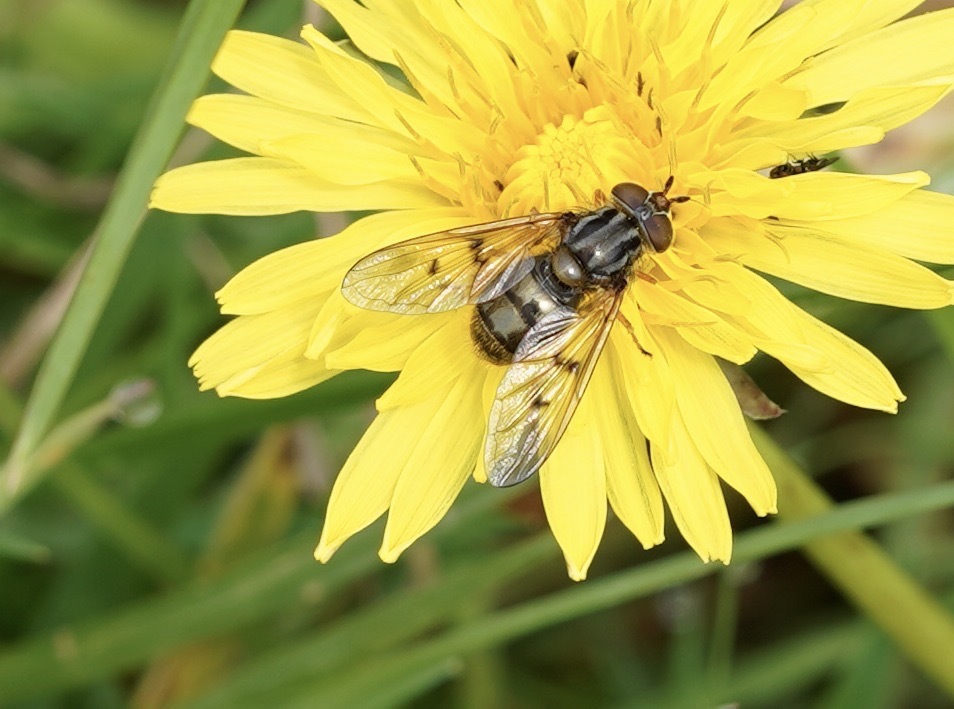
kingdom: Animalia
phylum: Arthropoda
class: Insecta
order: Diptera
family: Syrphidae
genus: Ferdinandea
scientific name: Ferdinandea cuprea
